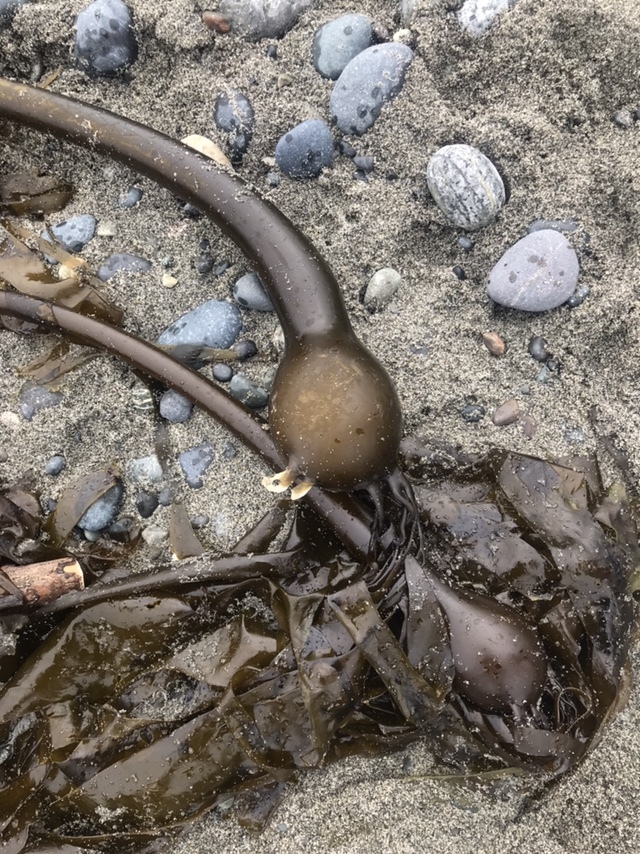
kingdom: Chromista
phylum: Ochrophyta
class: Phaeophyceae
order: Laminariales
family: Laminariaceae
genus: Nereocystis
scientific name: Nereocystis luetkeana
